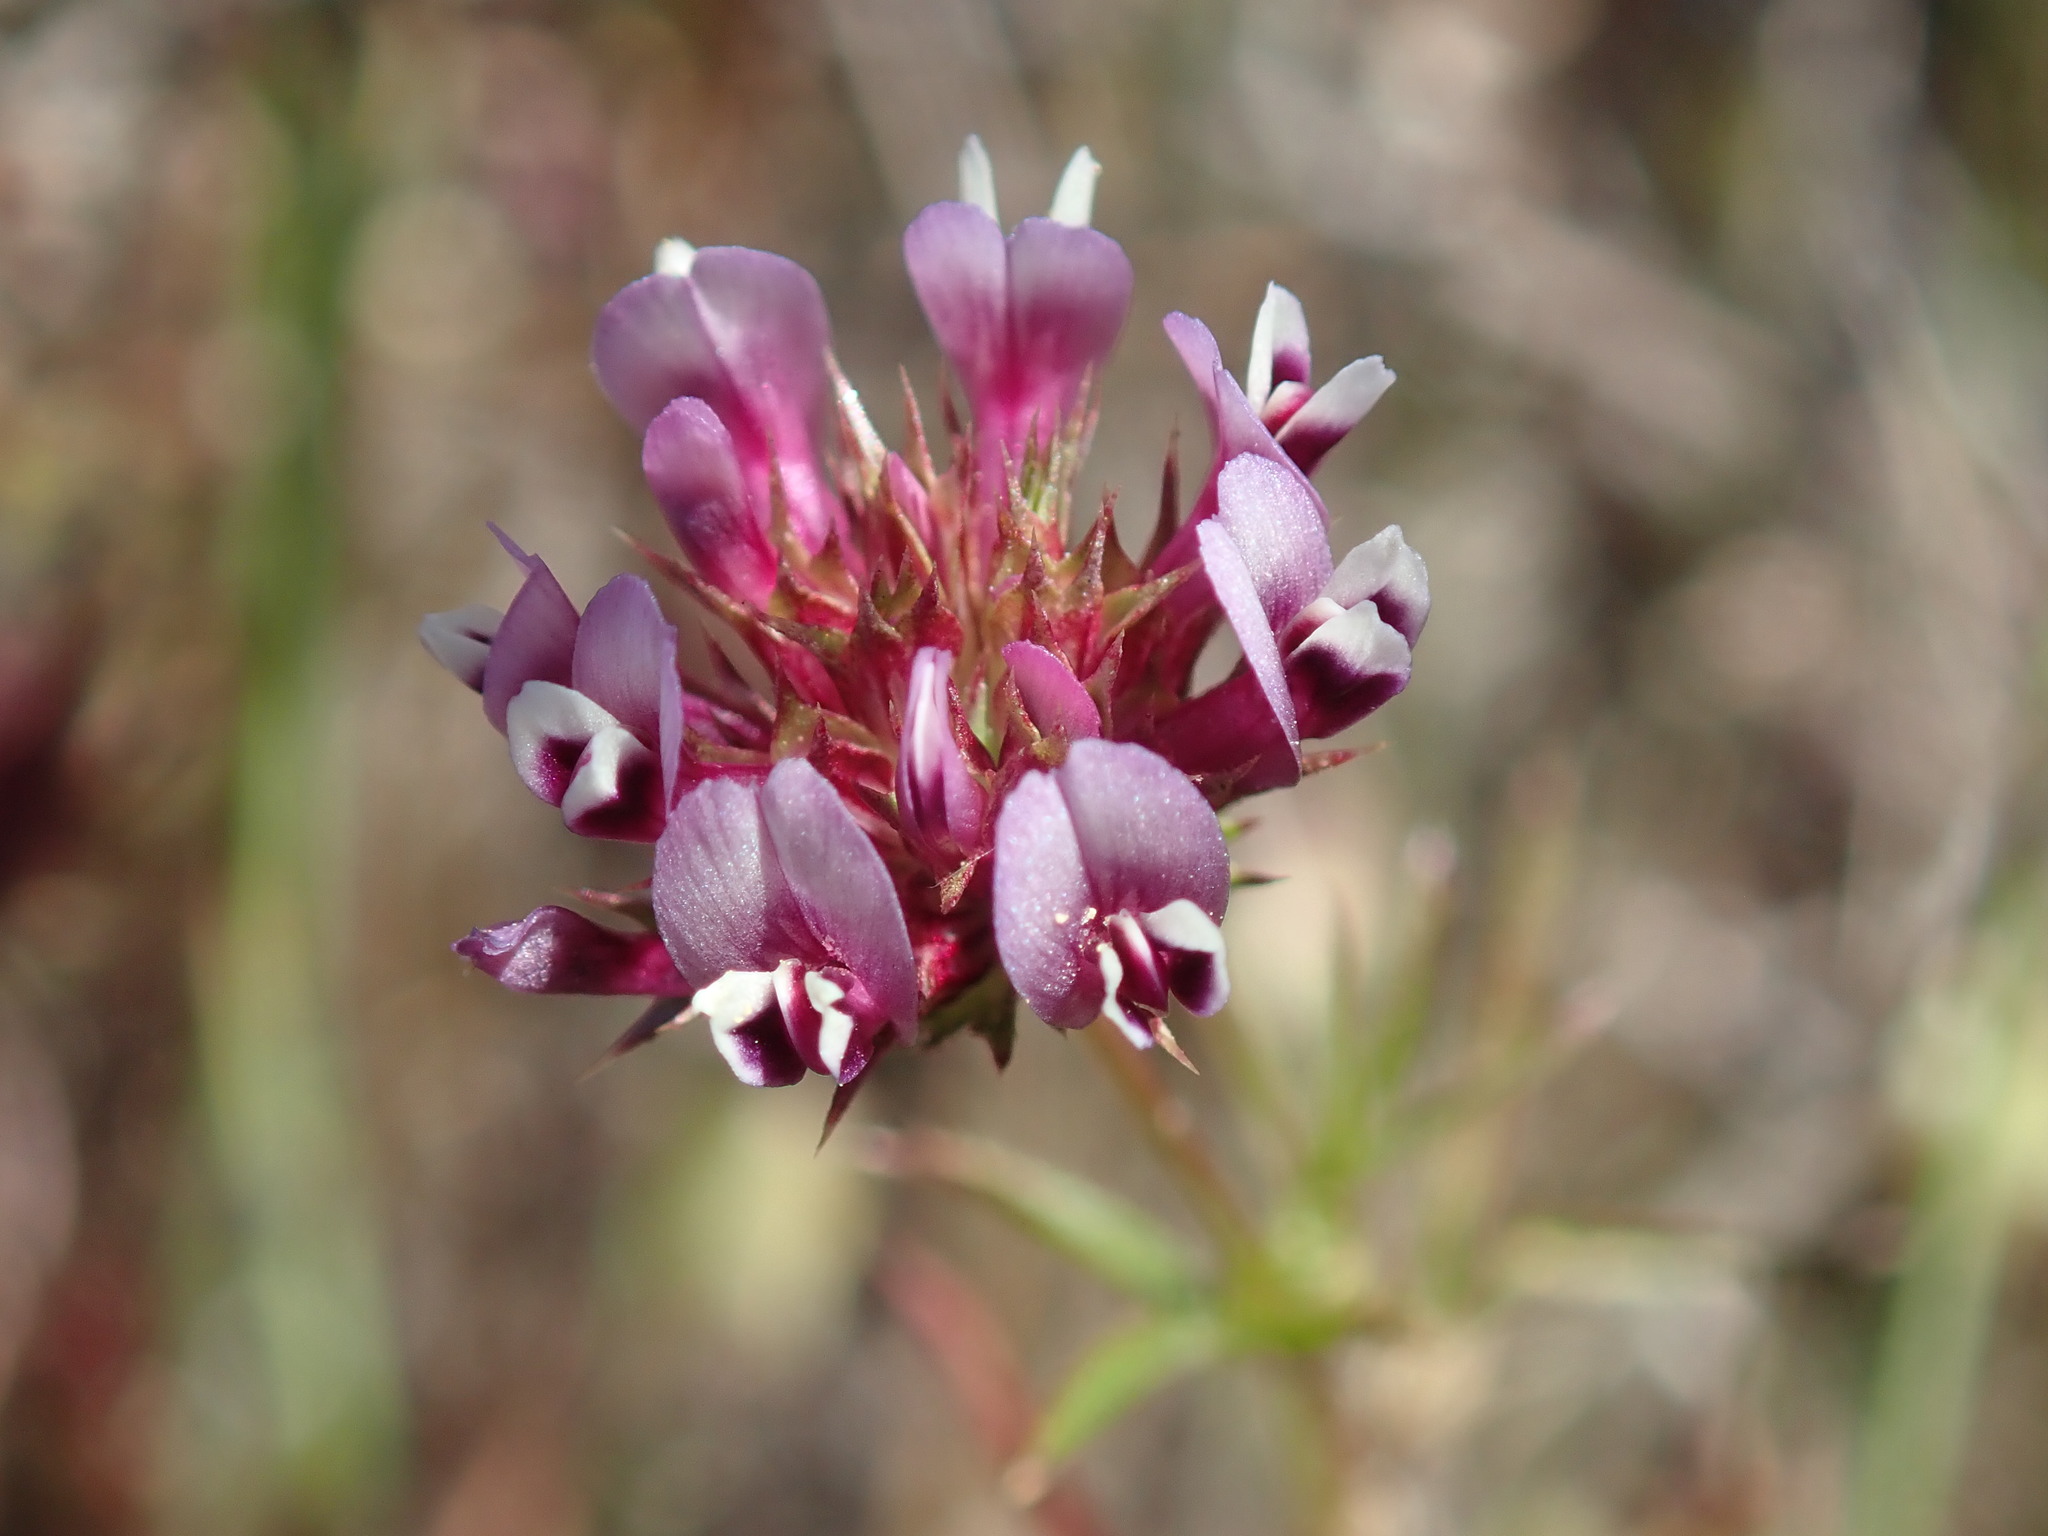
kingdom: Plantae
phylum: Tracheophyta
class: Magnoliopsida
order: Fabales
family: Fabaceae
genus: Trifolium
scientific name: Trifolium willdenovii
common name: Tomcat clover
